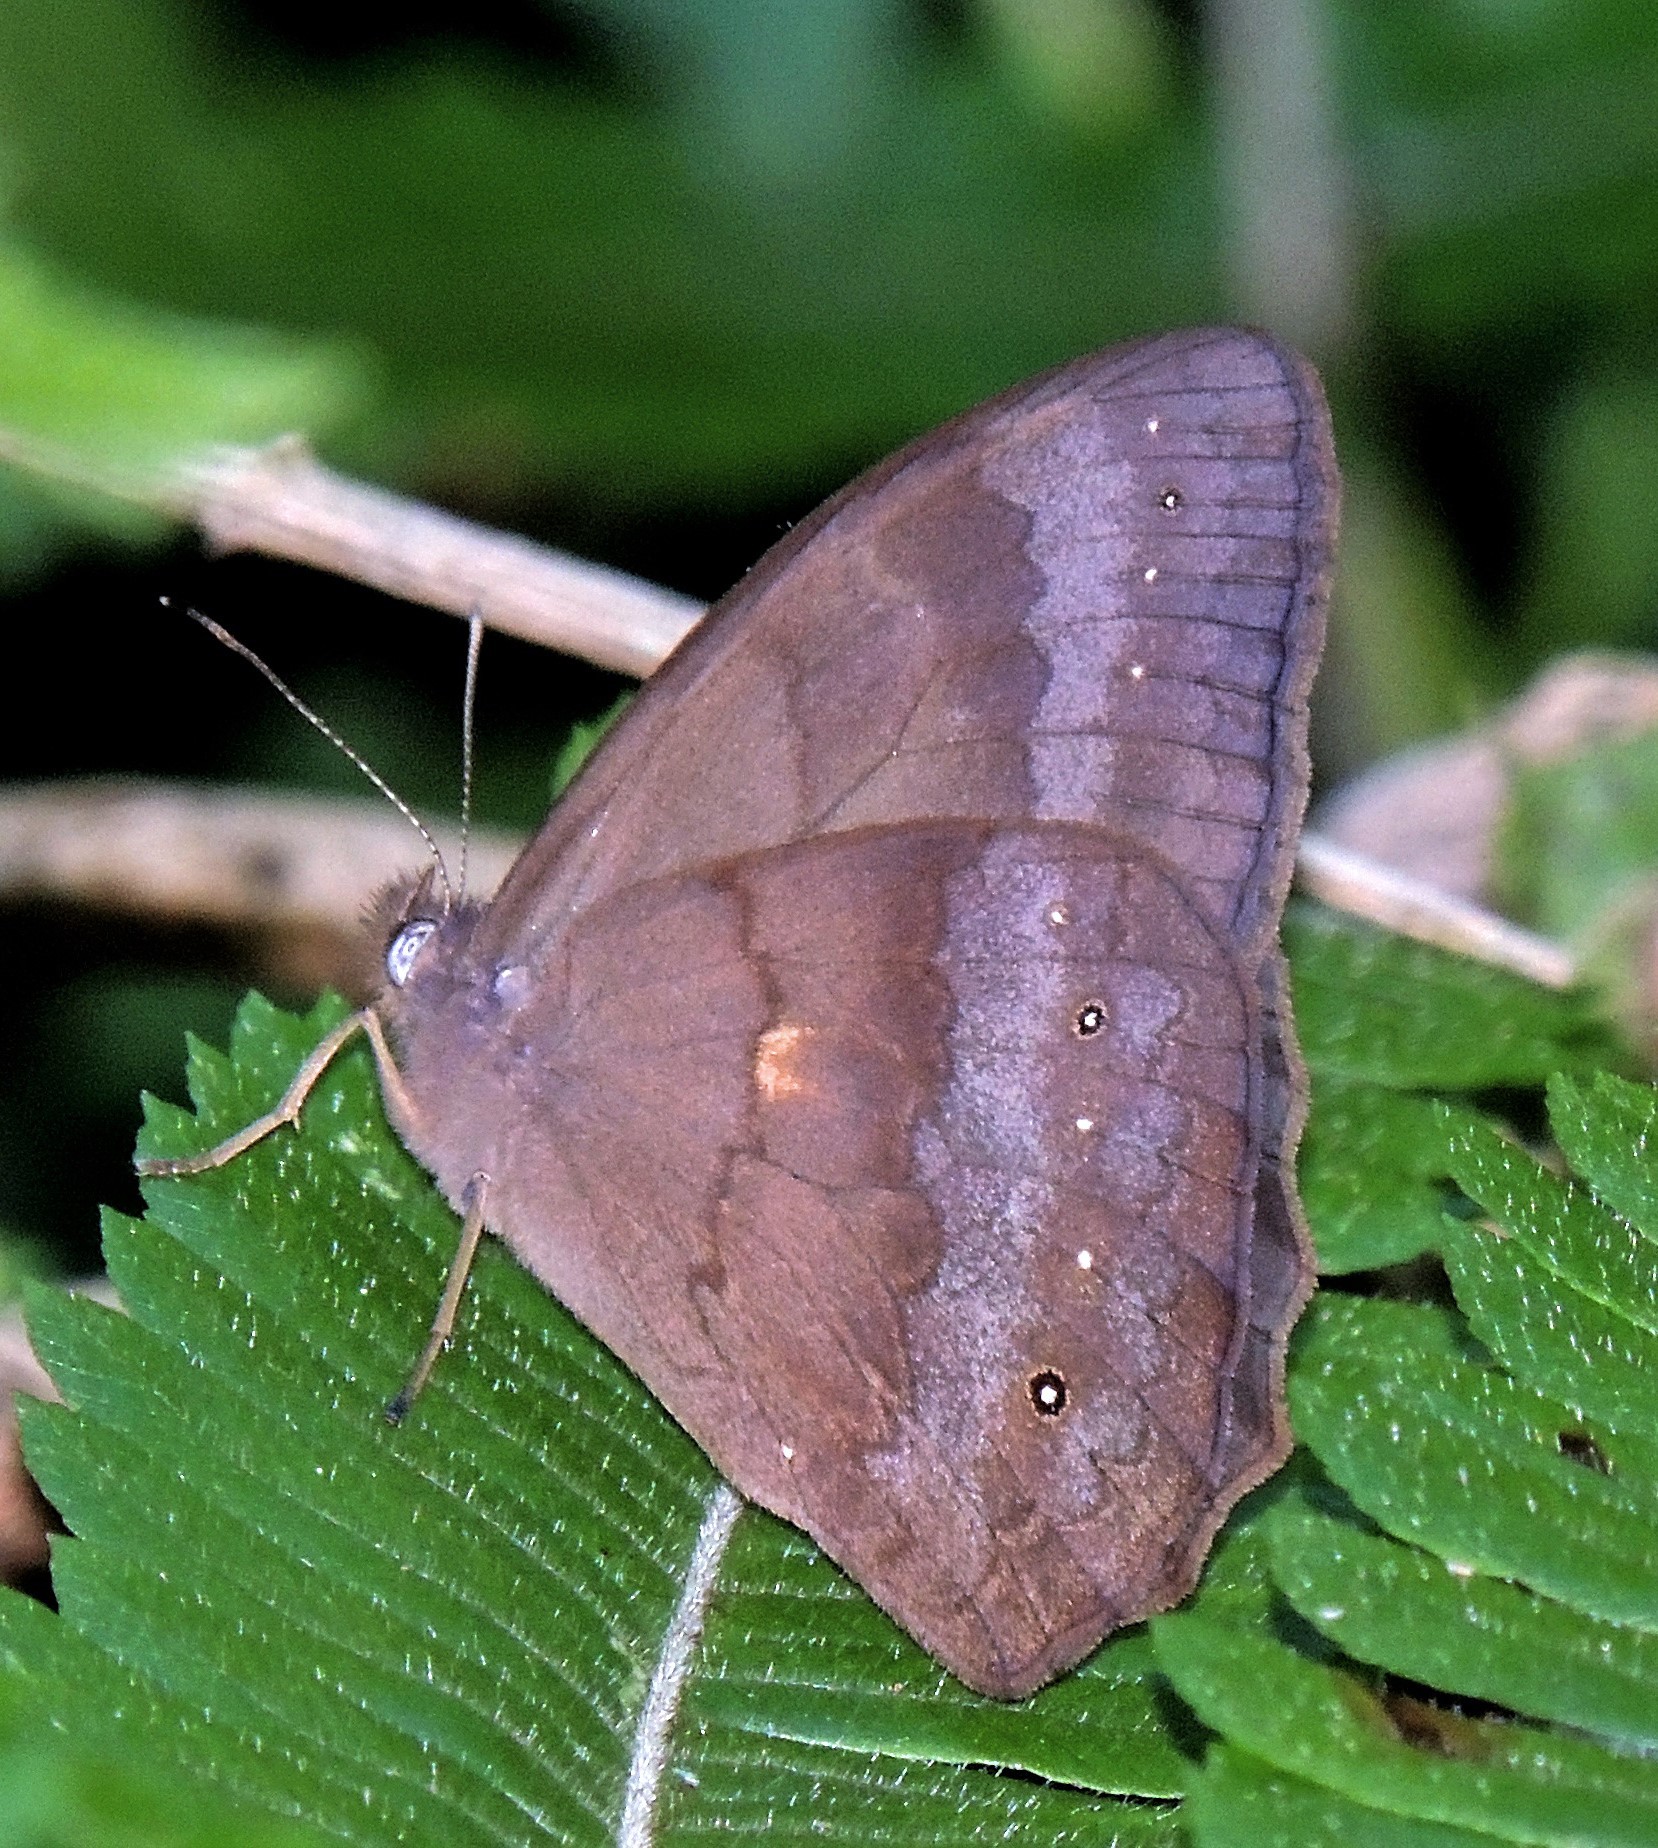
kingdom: Animalia
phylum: Arthropoda
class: Insecta
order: Lepidoptera
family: Nymphalidae
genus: Pseudodebis
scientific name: Pseudodebis euptychidia
